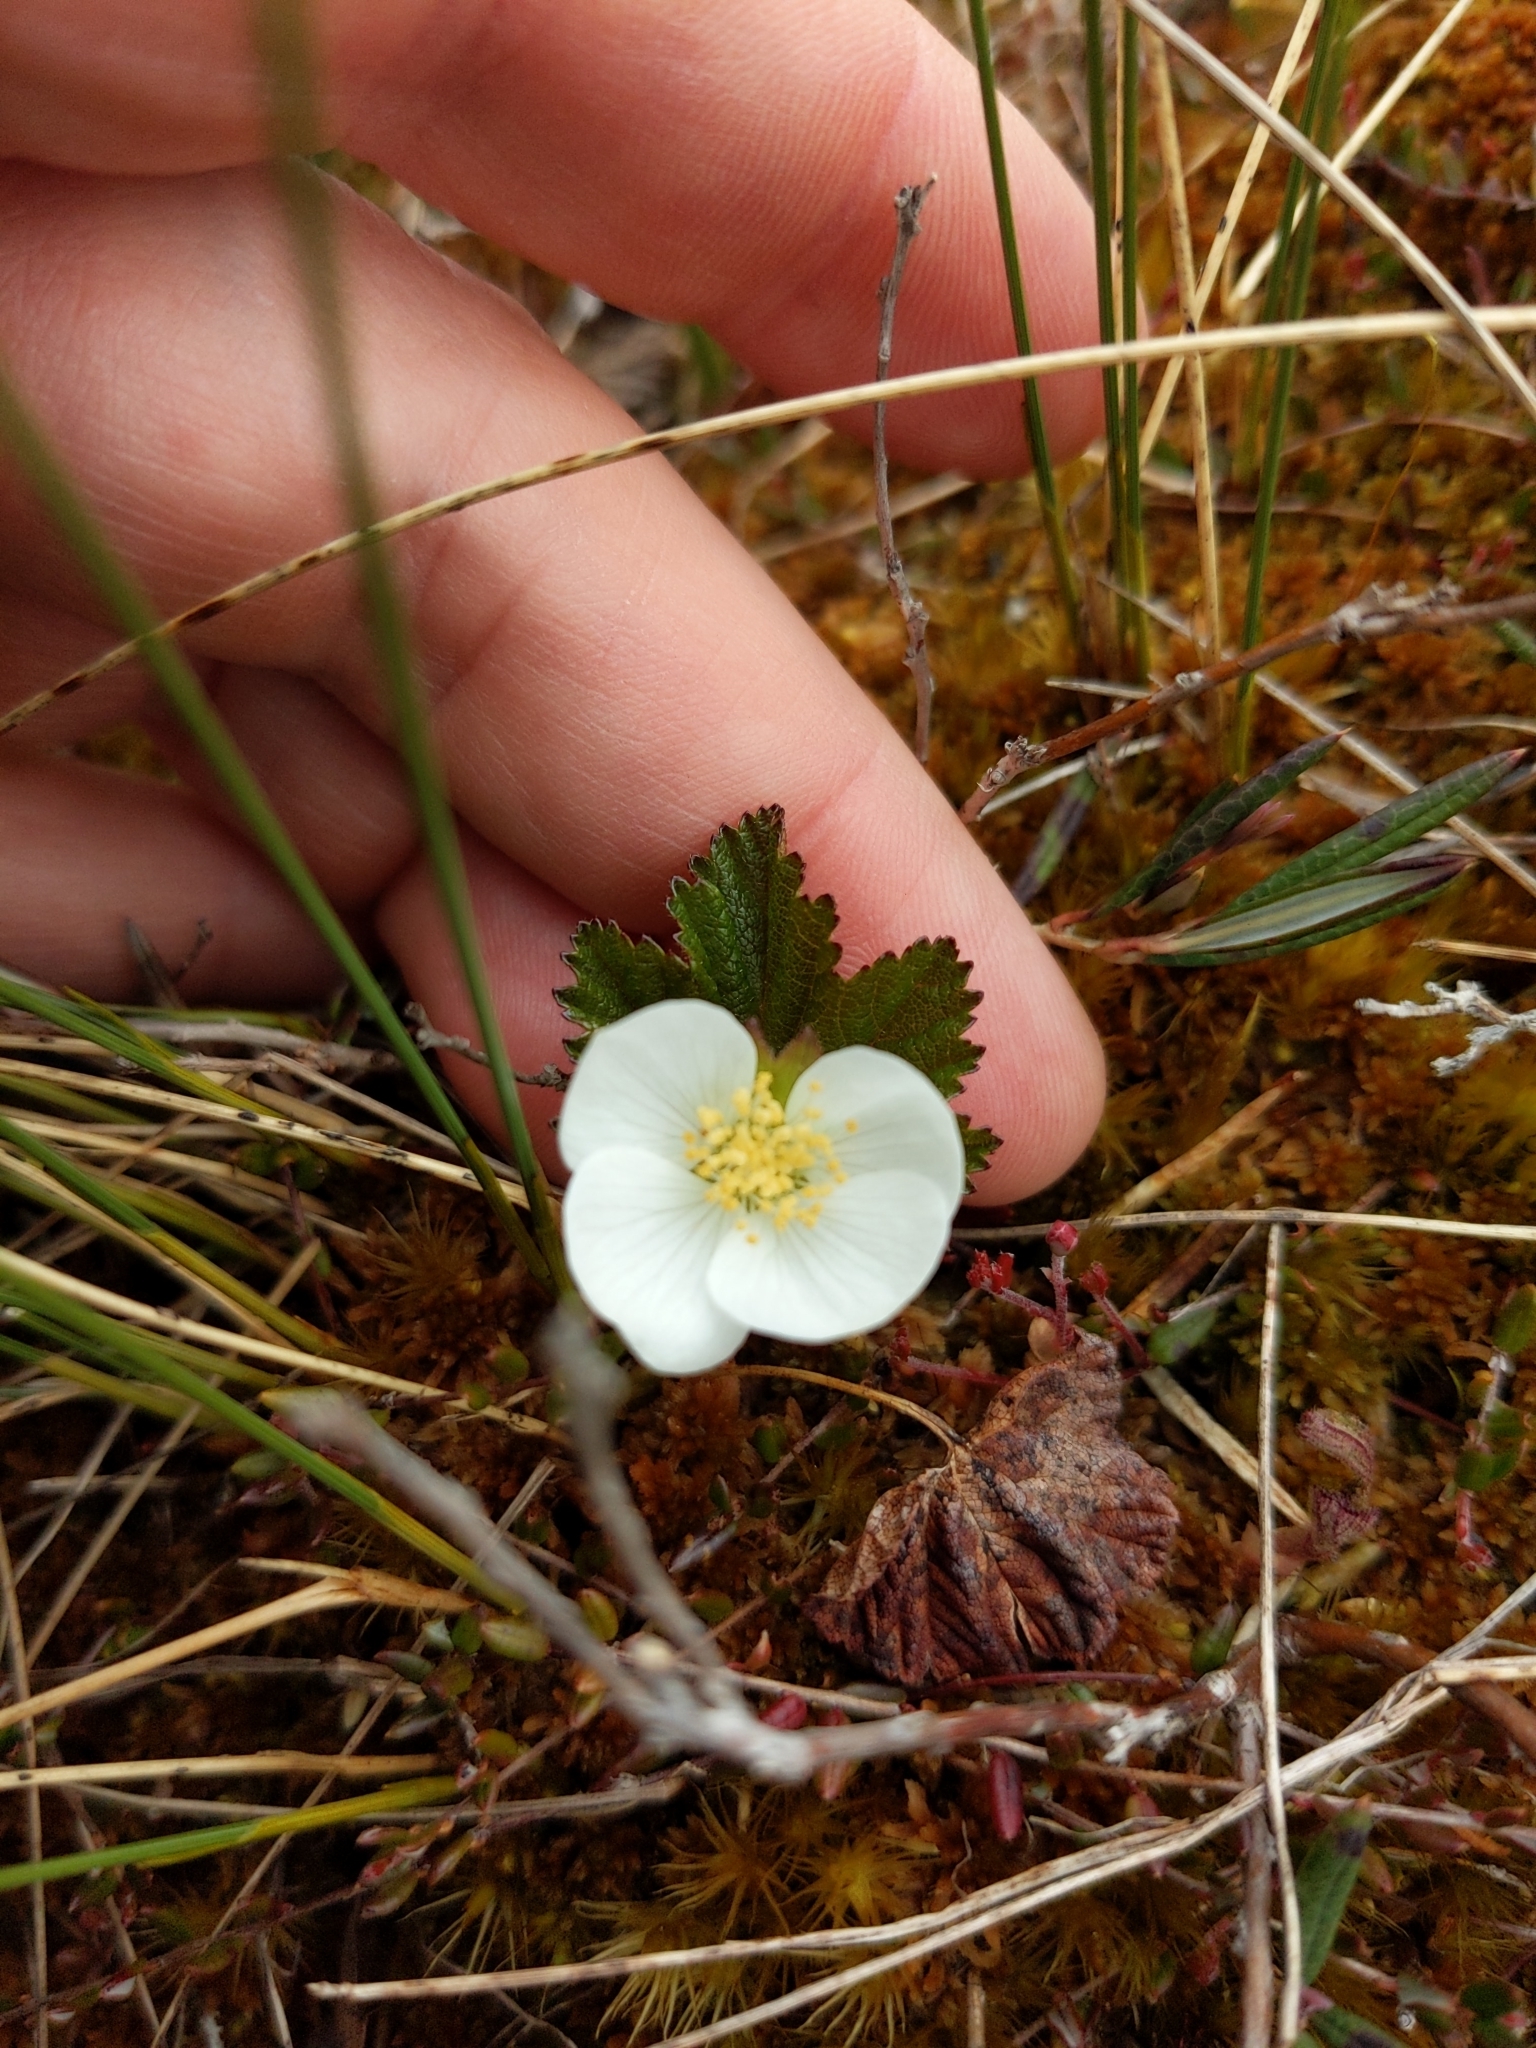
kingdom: Plantae
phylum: Tracheophyta
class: Magnoliopsida
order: Rosales
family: Rosaceae
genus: Rubus
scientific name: Rubus chamaemorus
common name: Cloudberry
